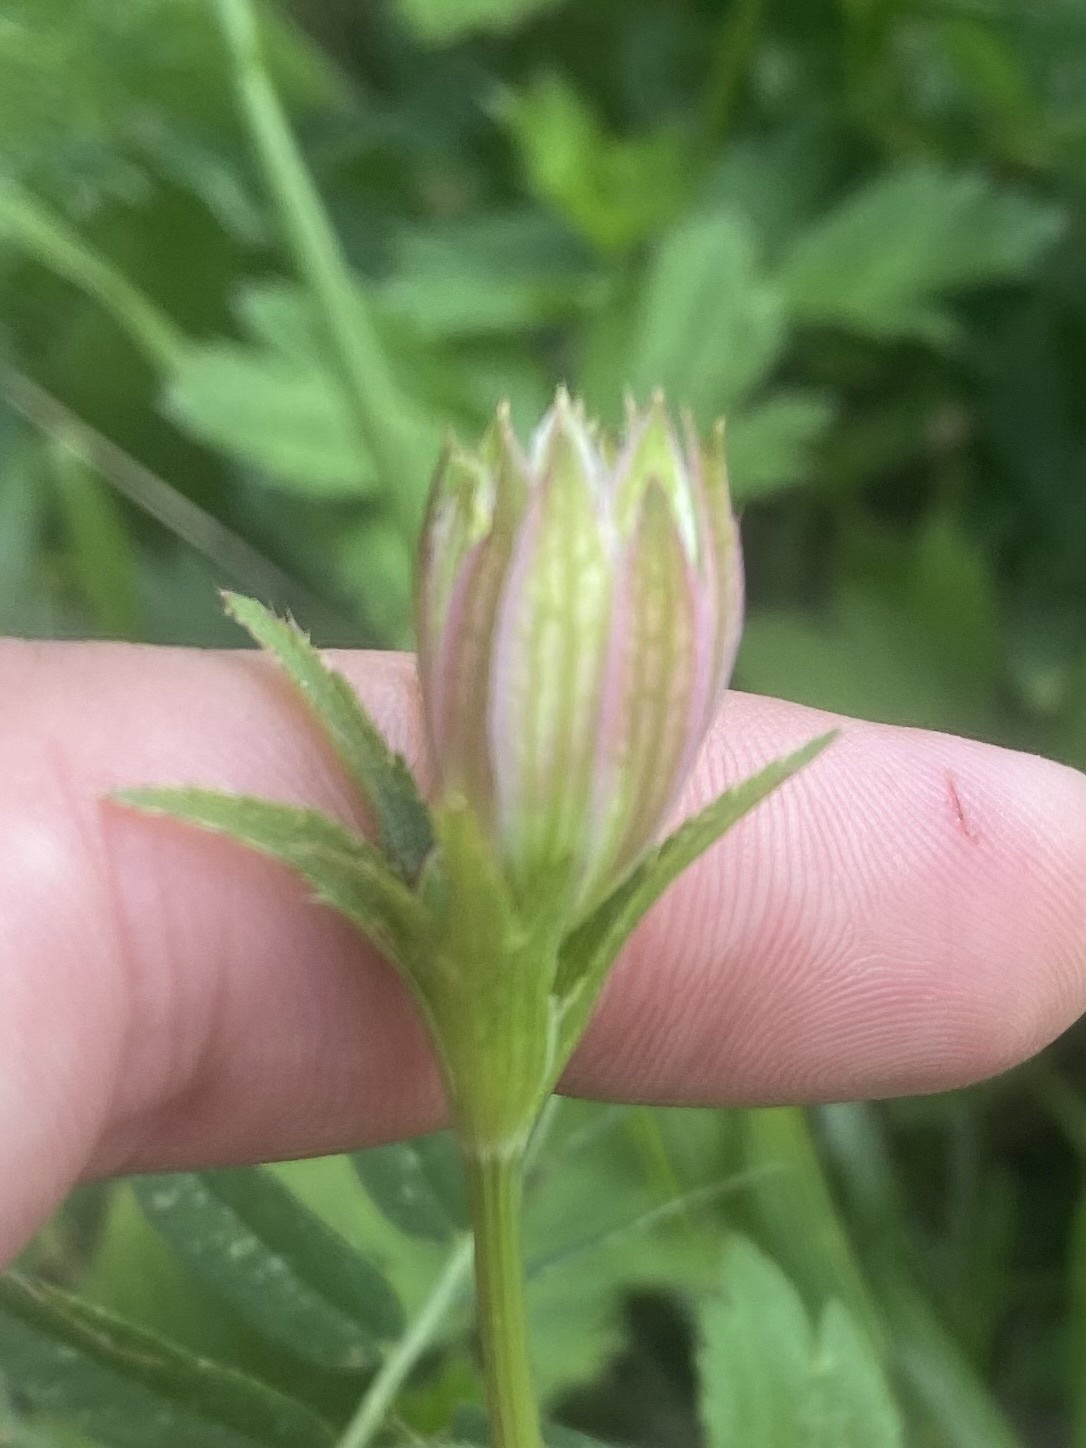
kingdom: Plantae
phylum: Tracheophyta
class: Magnoliopsida
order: Apiales
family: Apiaceae
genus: Astrantia
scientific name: Astrantia trifida
